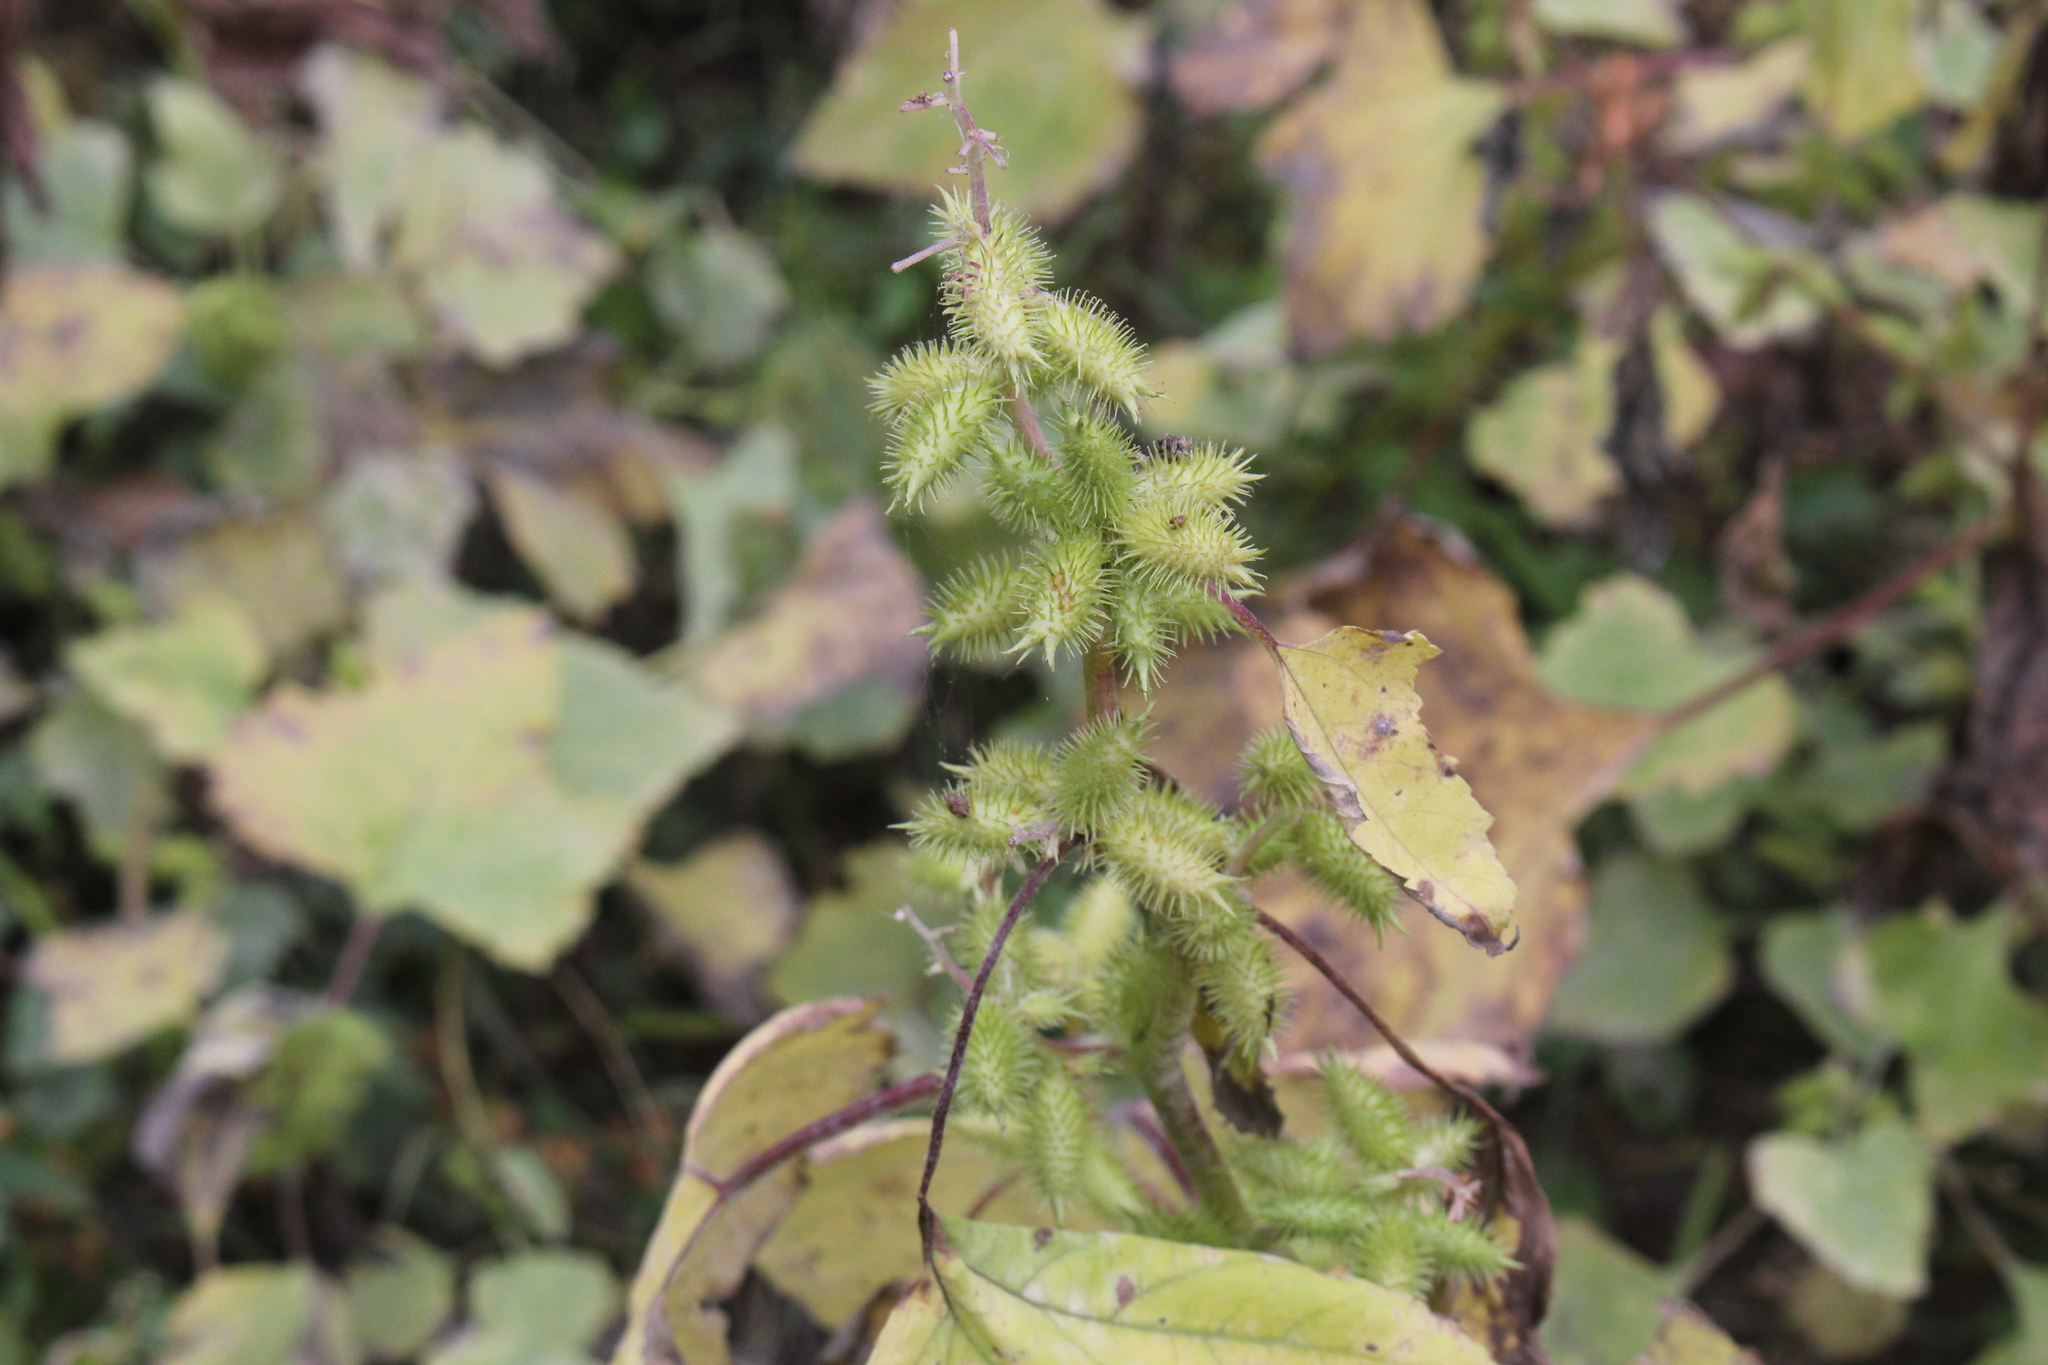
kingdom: Plantae
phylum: Tracheophyta
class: Magnoliopsida
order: Asterales
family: Asteraceae
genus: Xanthium
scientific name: Xanthium strumarium
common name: Rough cocklebur
